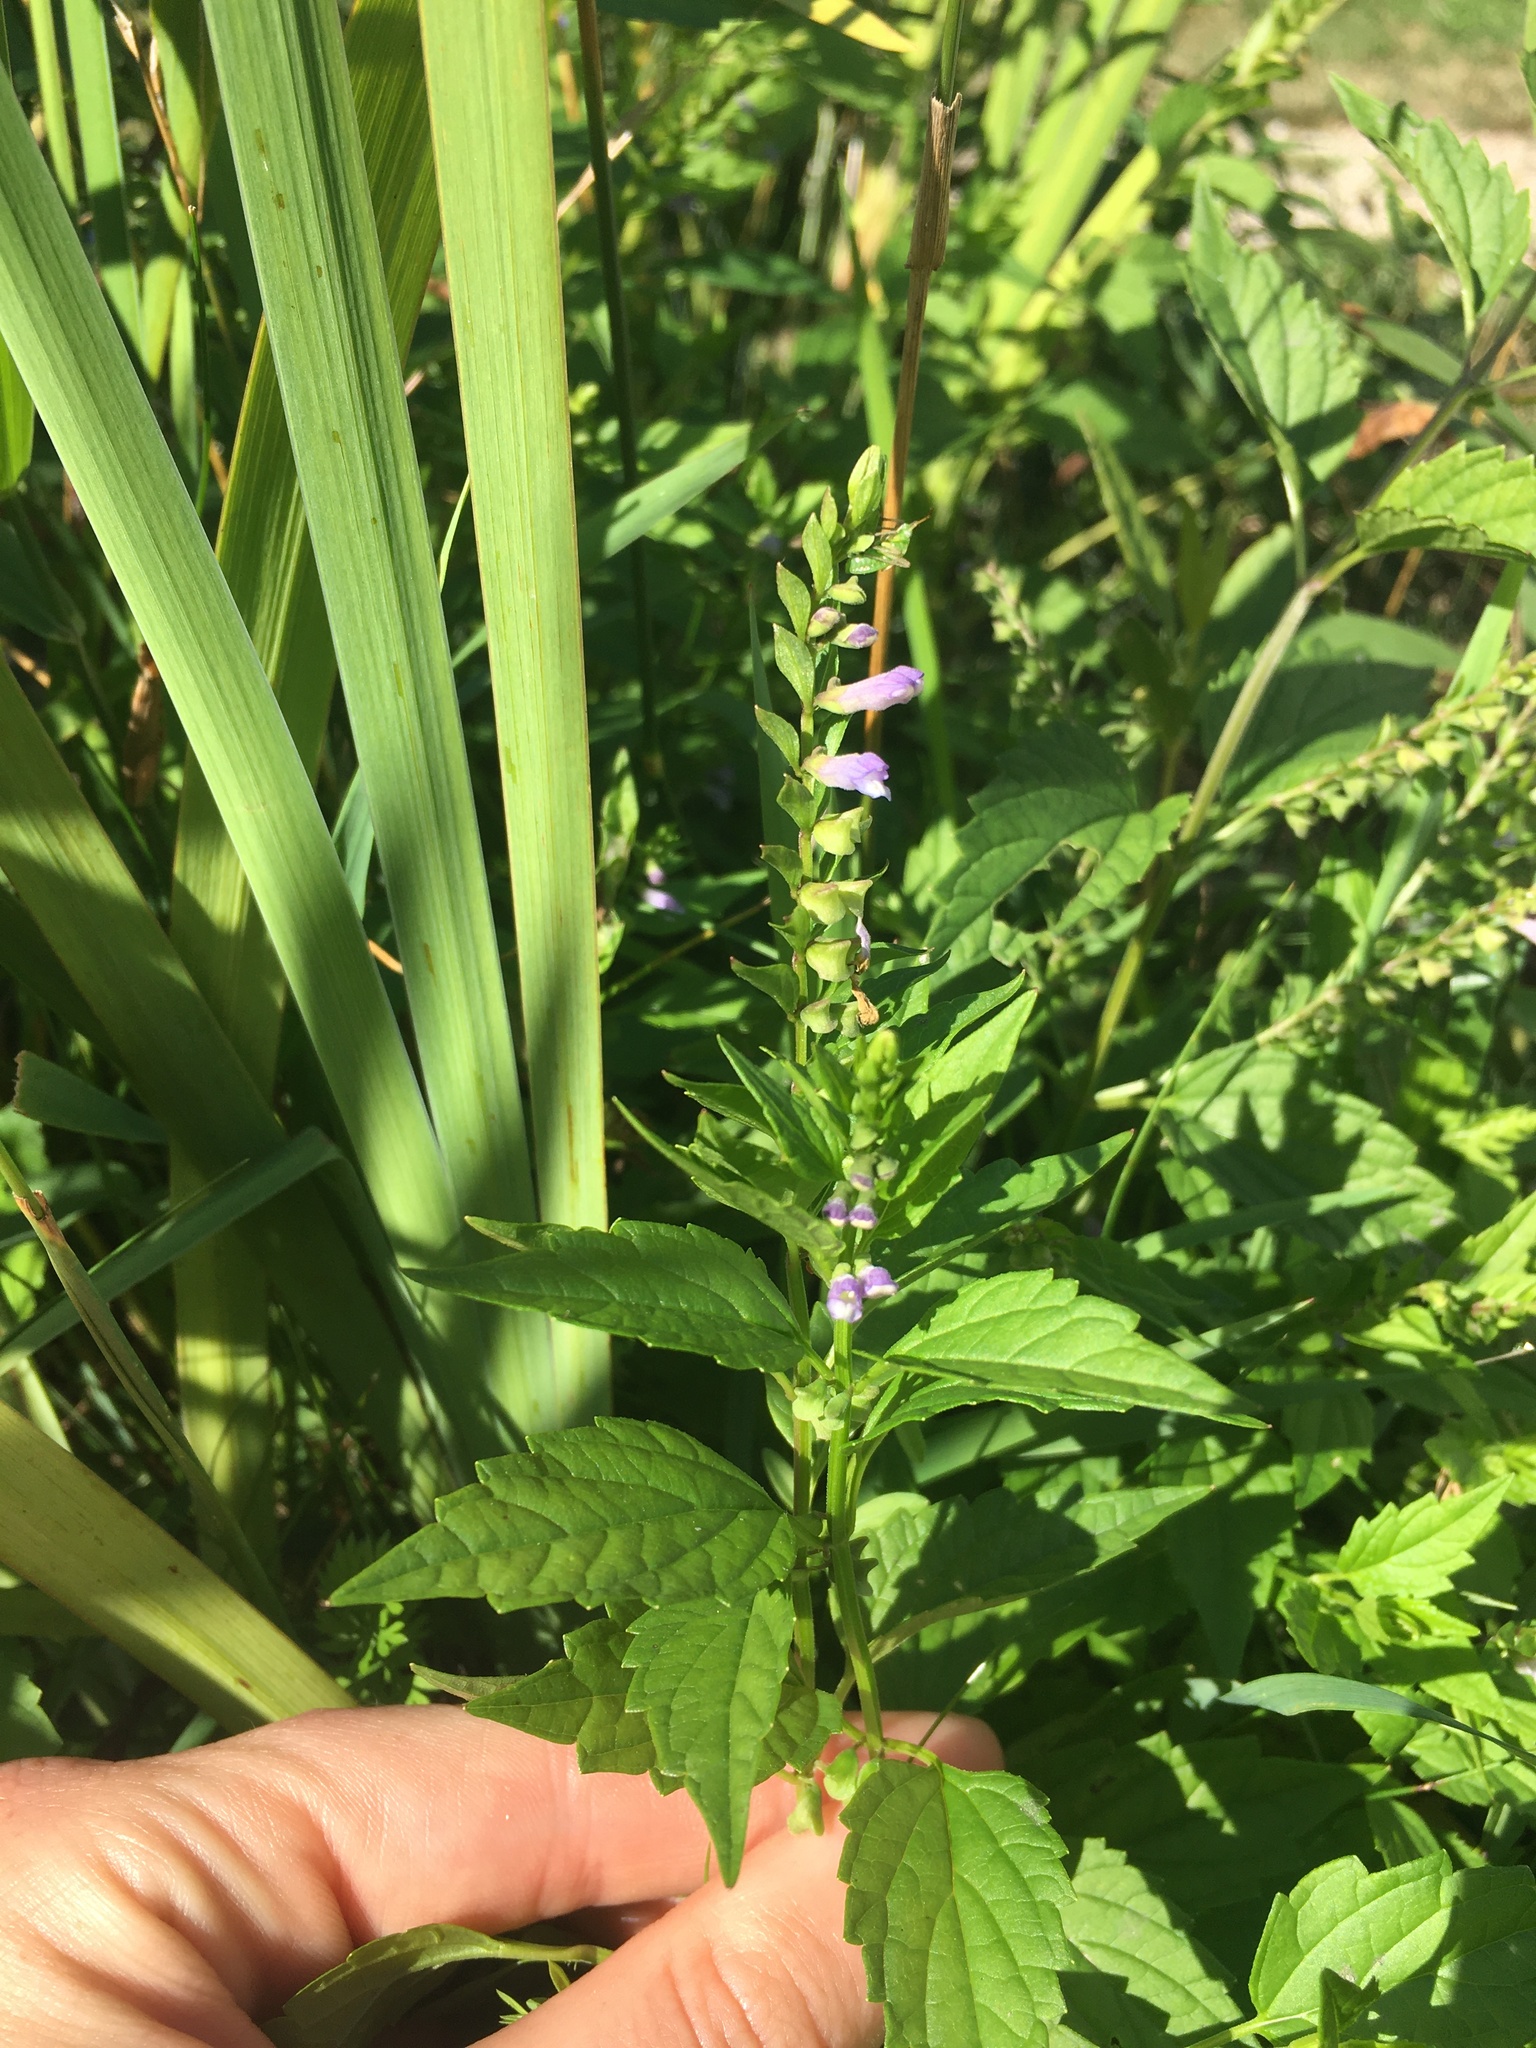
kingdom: Plantae
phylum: Tracheophyta
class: Magnoliopsida
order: Lamiales
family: Lamiaceae
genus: Scutellaria
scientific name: Scutellaria lateriflora
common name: Blue skullcap
